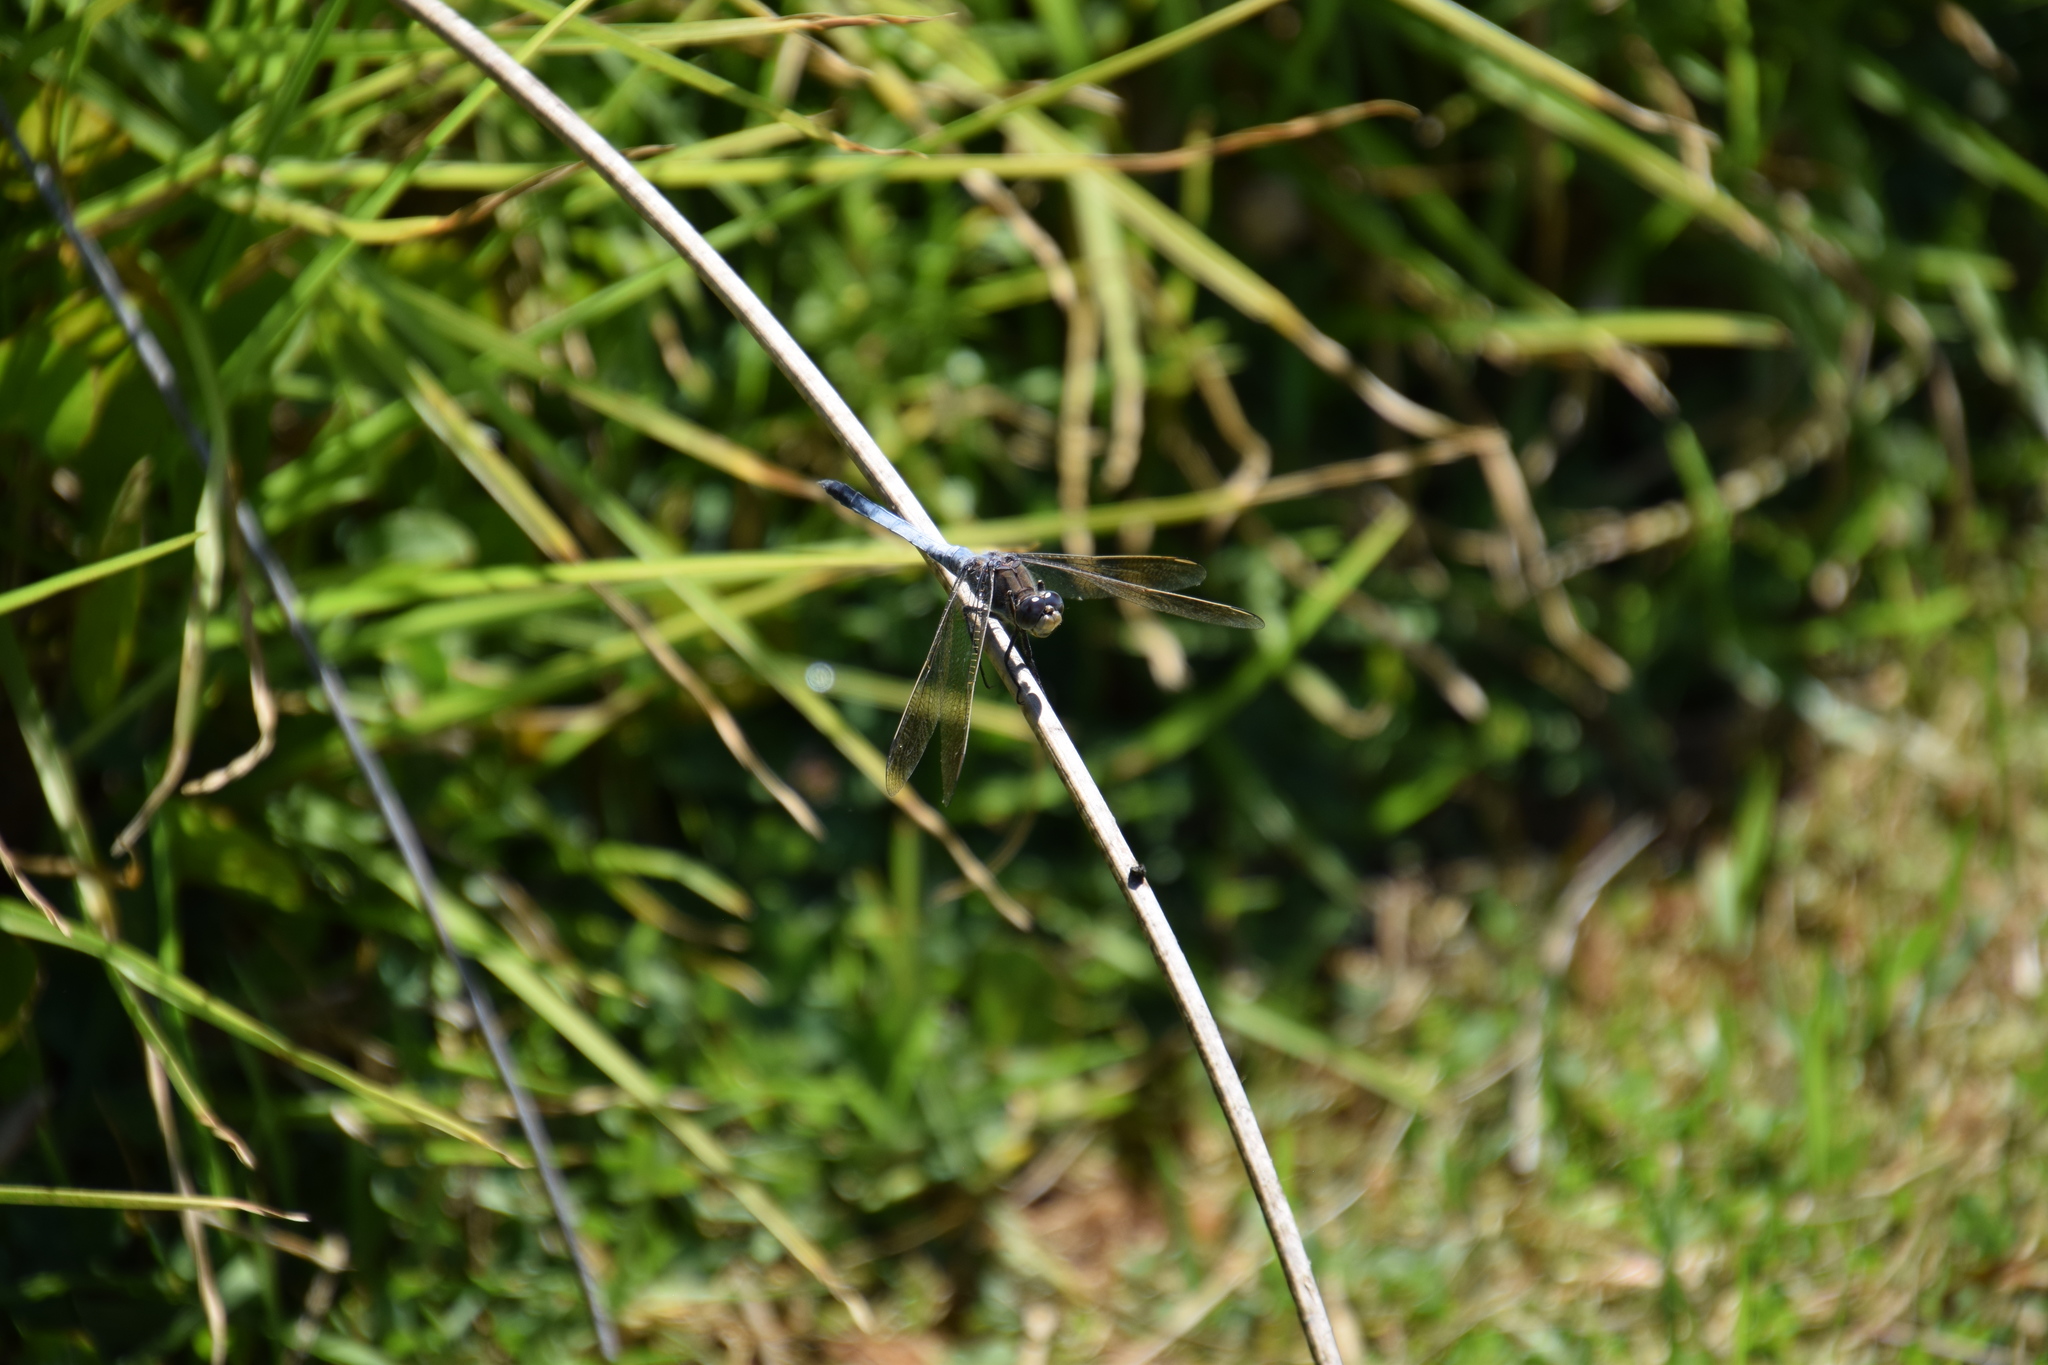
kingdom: Animalia
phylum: Arthropoda
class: Insecta
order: Odonata
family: Libellulidae
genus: Orthetrum
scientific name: Orthetrum caledonicum
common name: Blue skimmer
